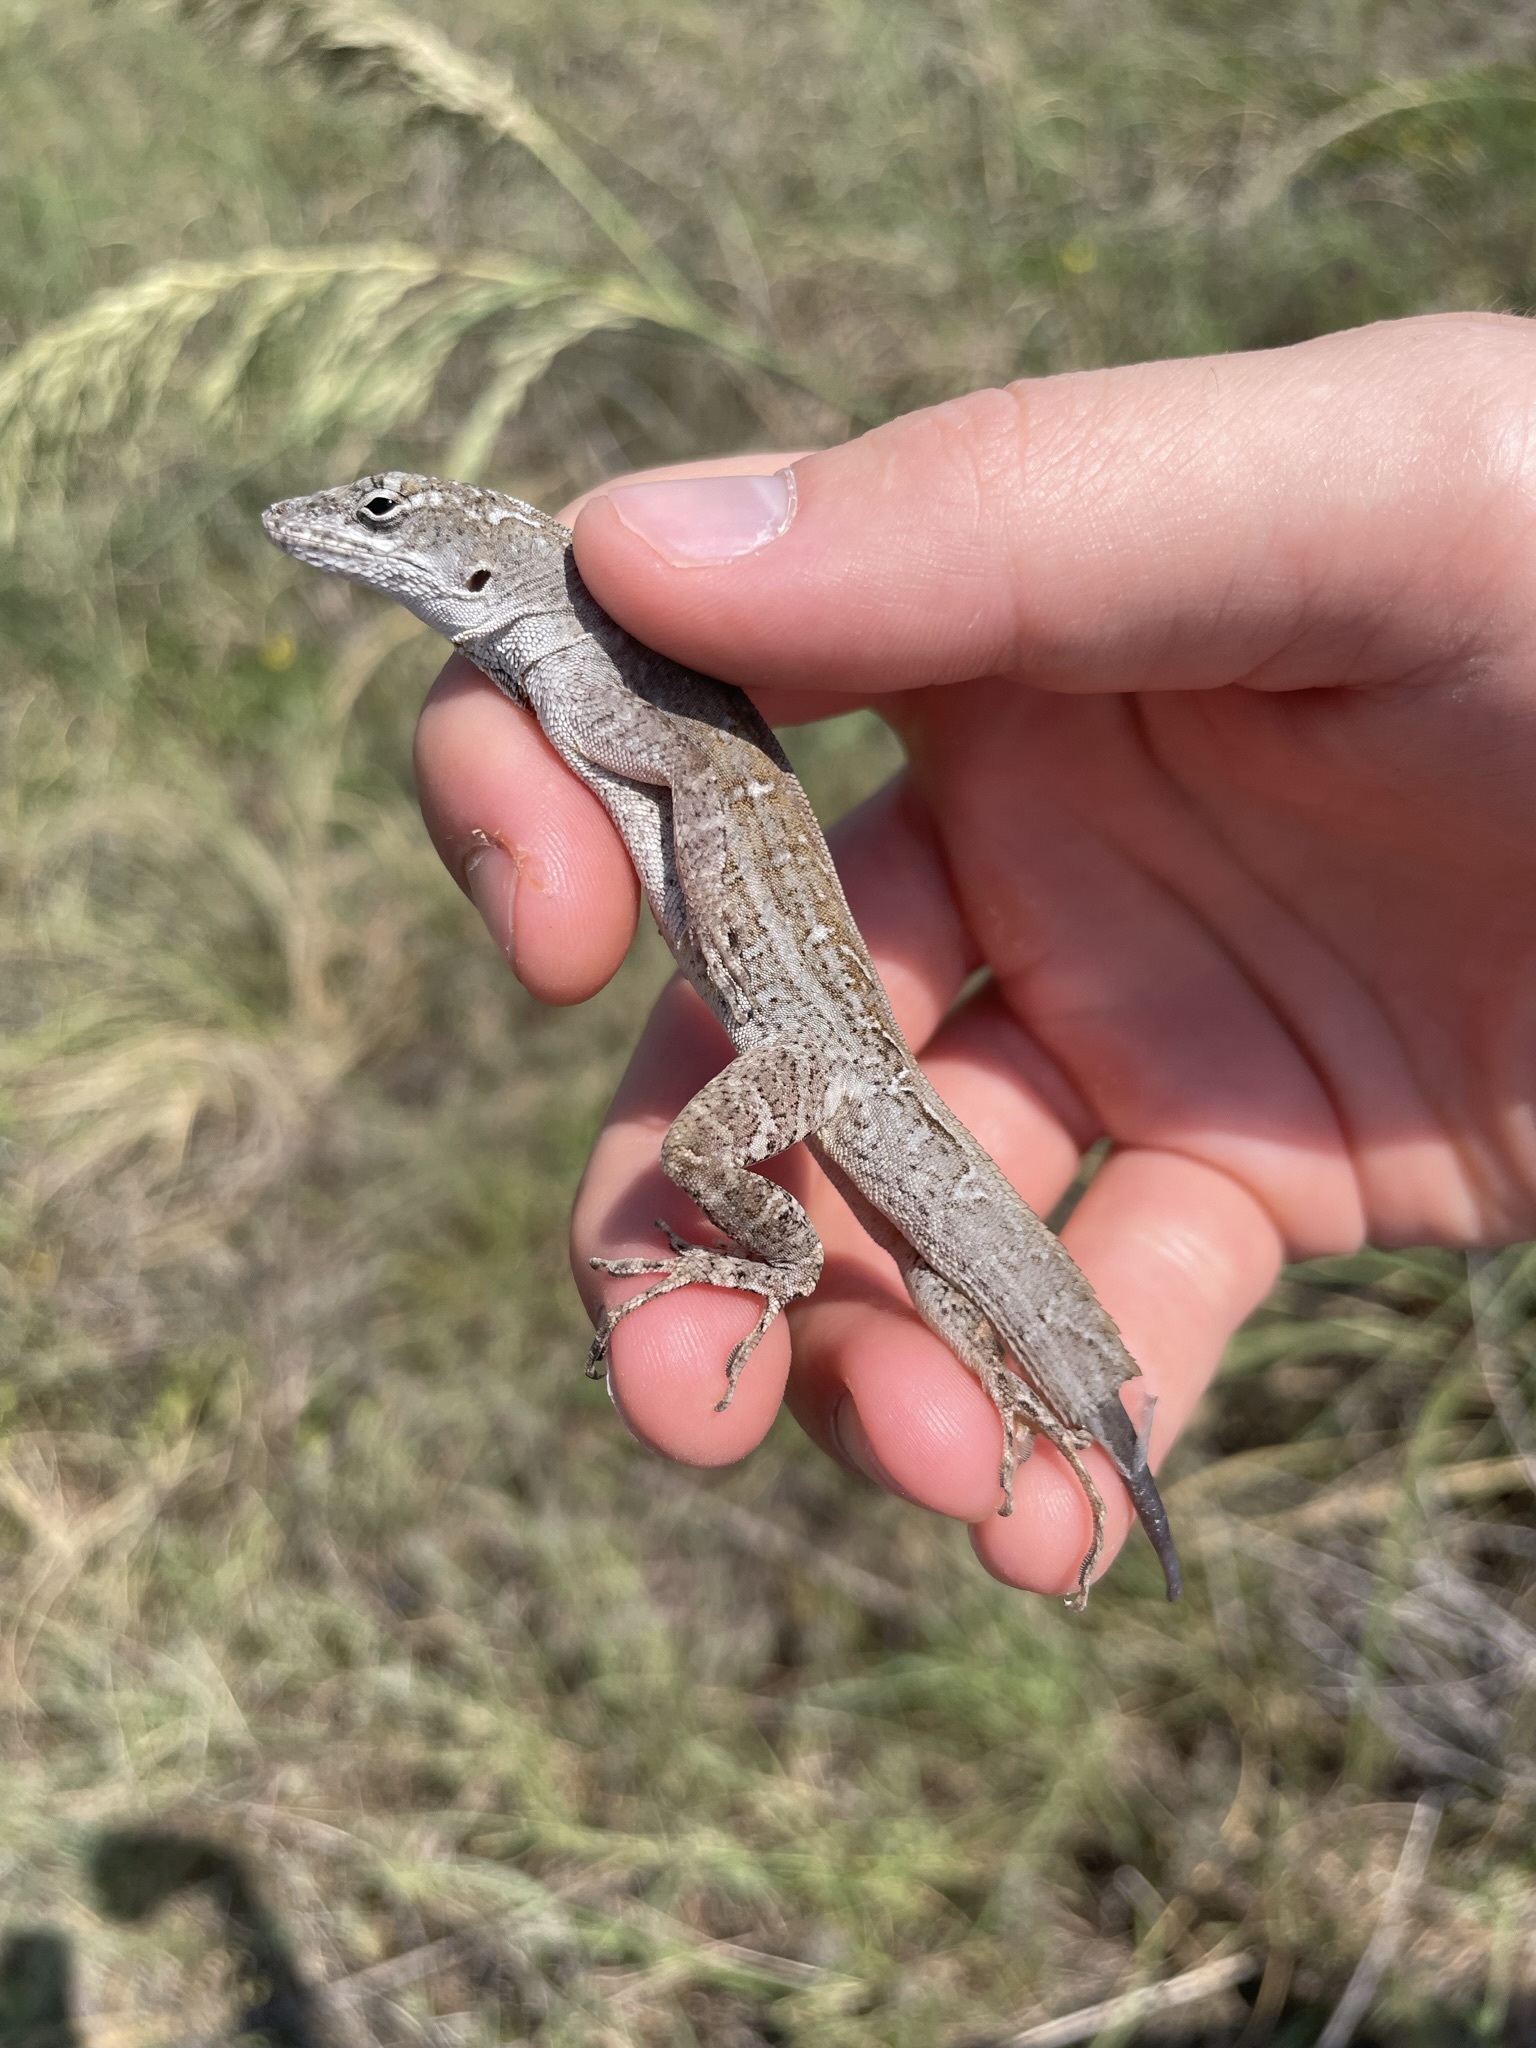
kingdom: Animalia
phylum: Chordata
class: Squamata
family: Dactyloidae
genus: Anolis
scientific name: Anolis sagrei
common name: Brown anole
